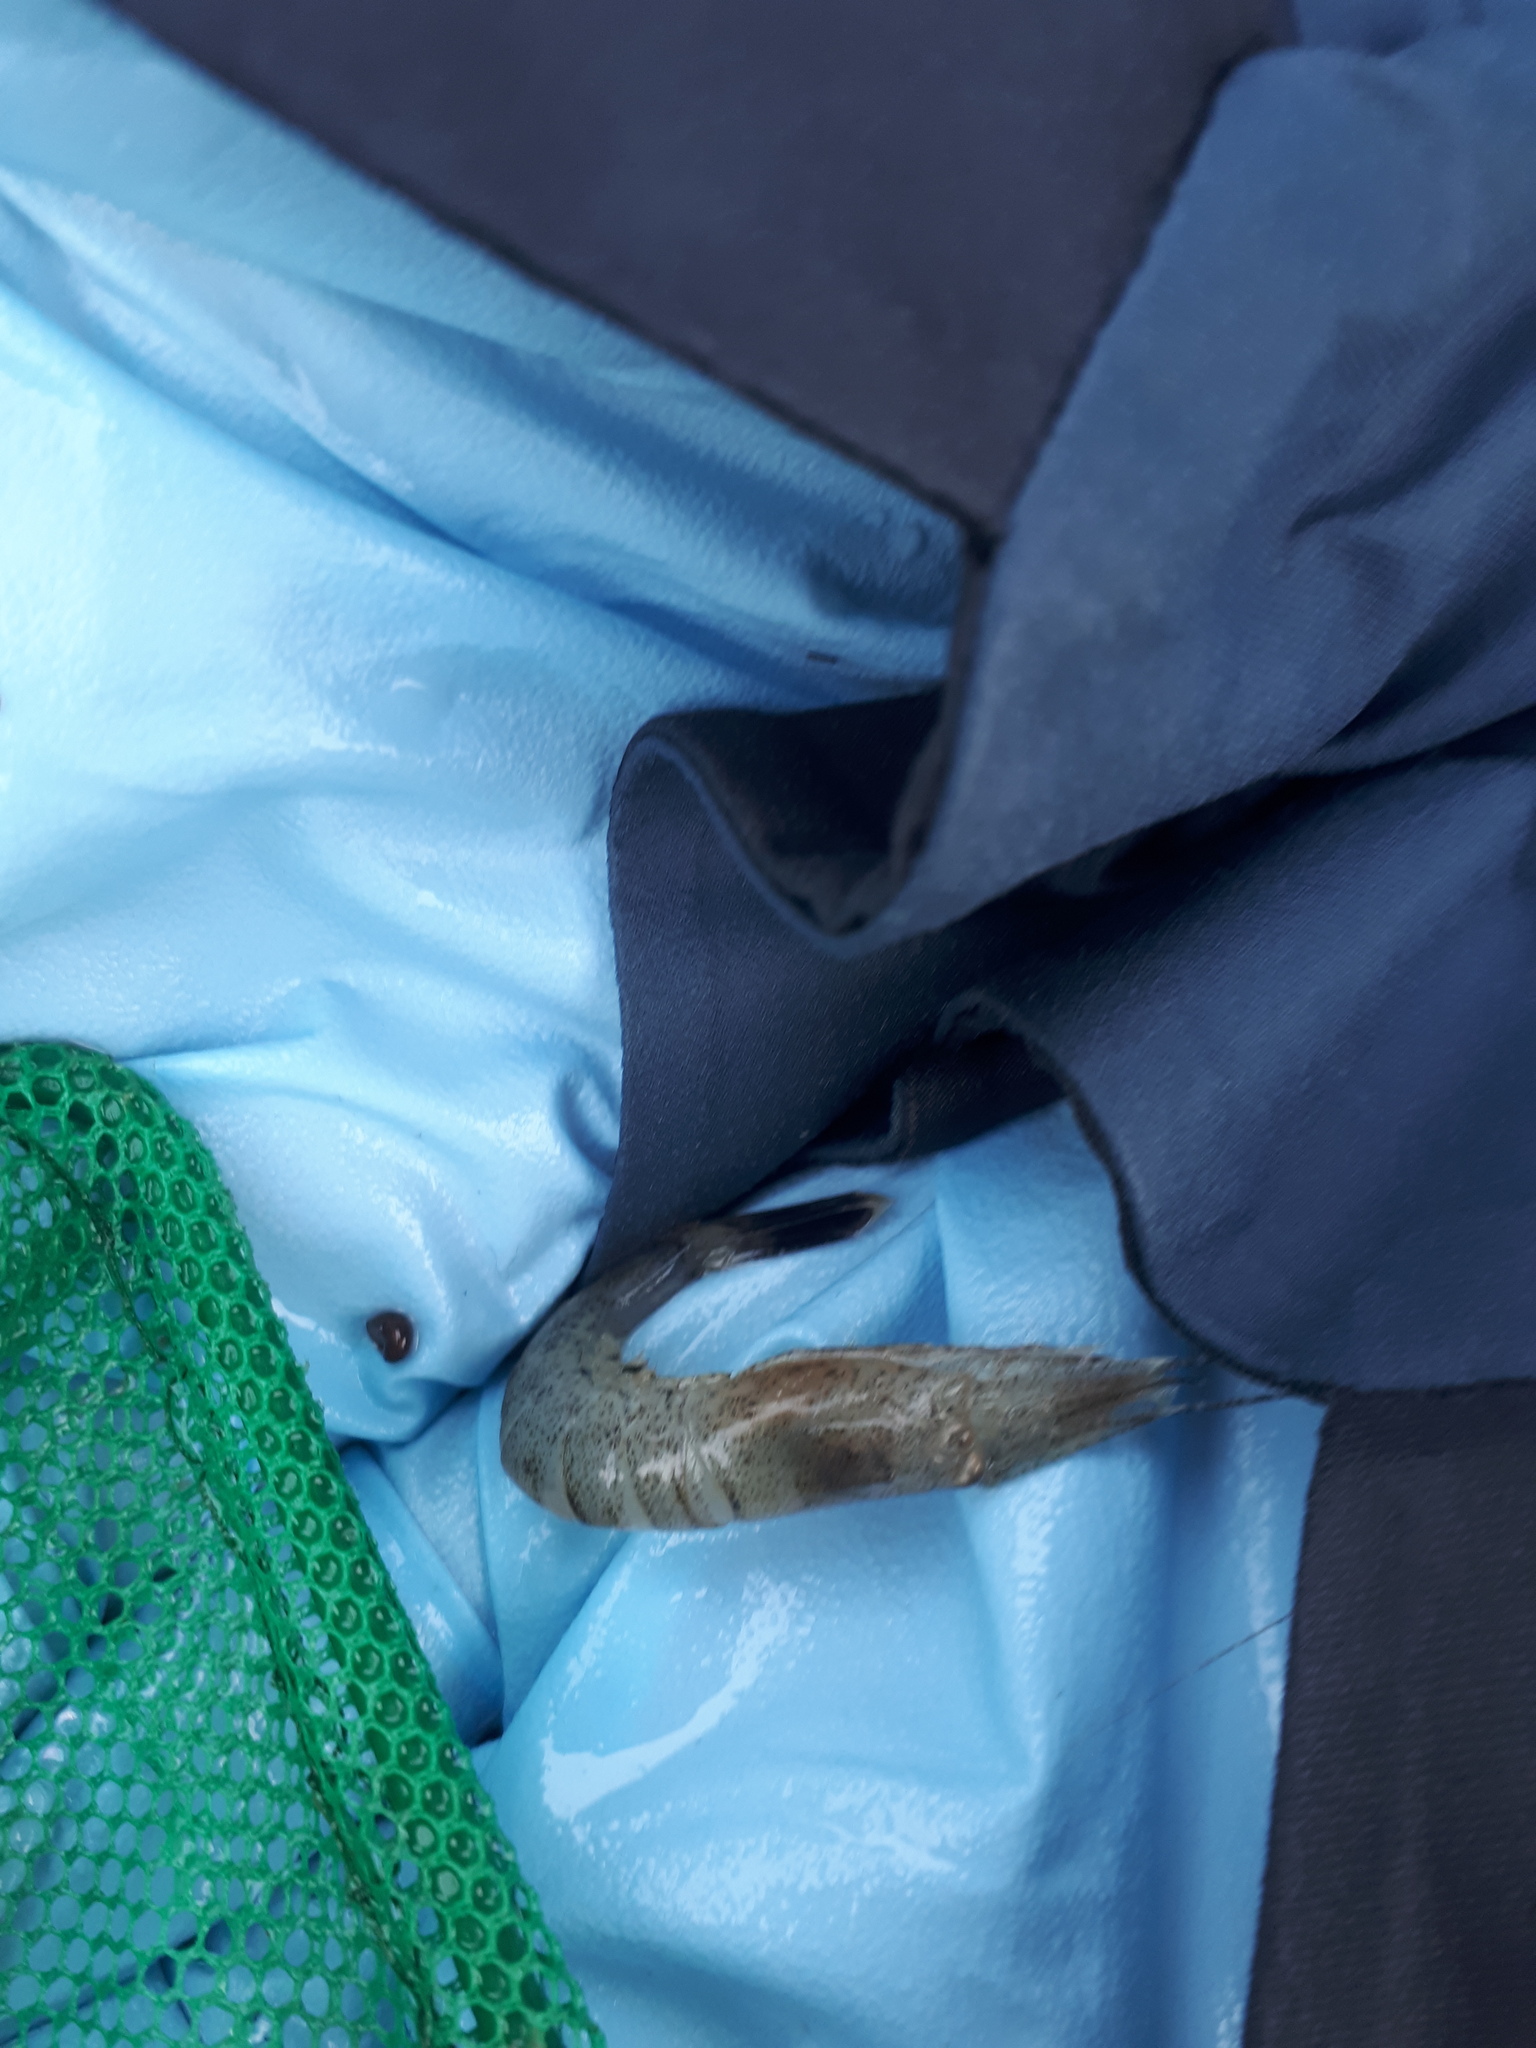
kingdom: Animalia
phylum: Arthropoda
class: Malacostraca
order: Decapoda
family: Crangonidae
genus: Crangon
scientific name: Crangon septemspinosa
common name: Bail shrimp
